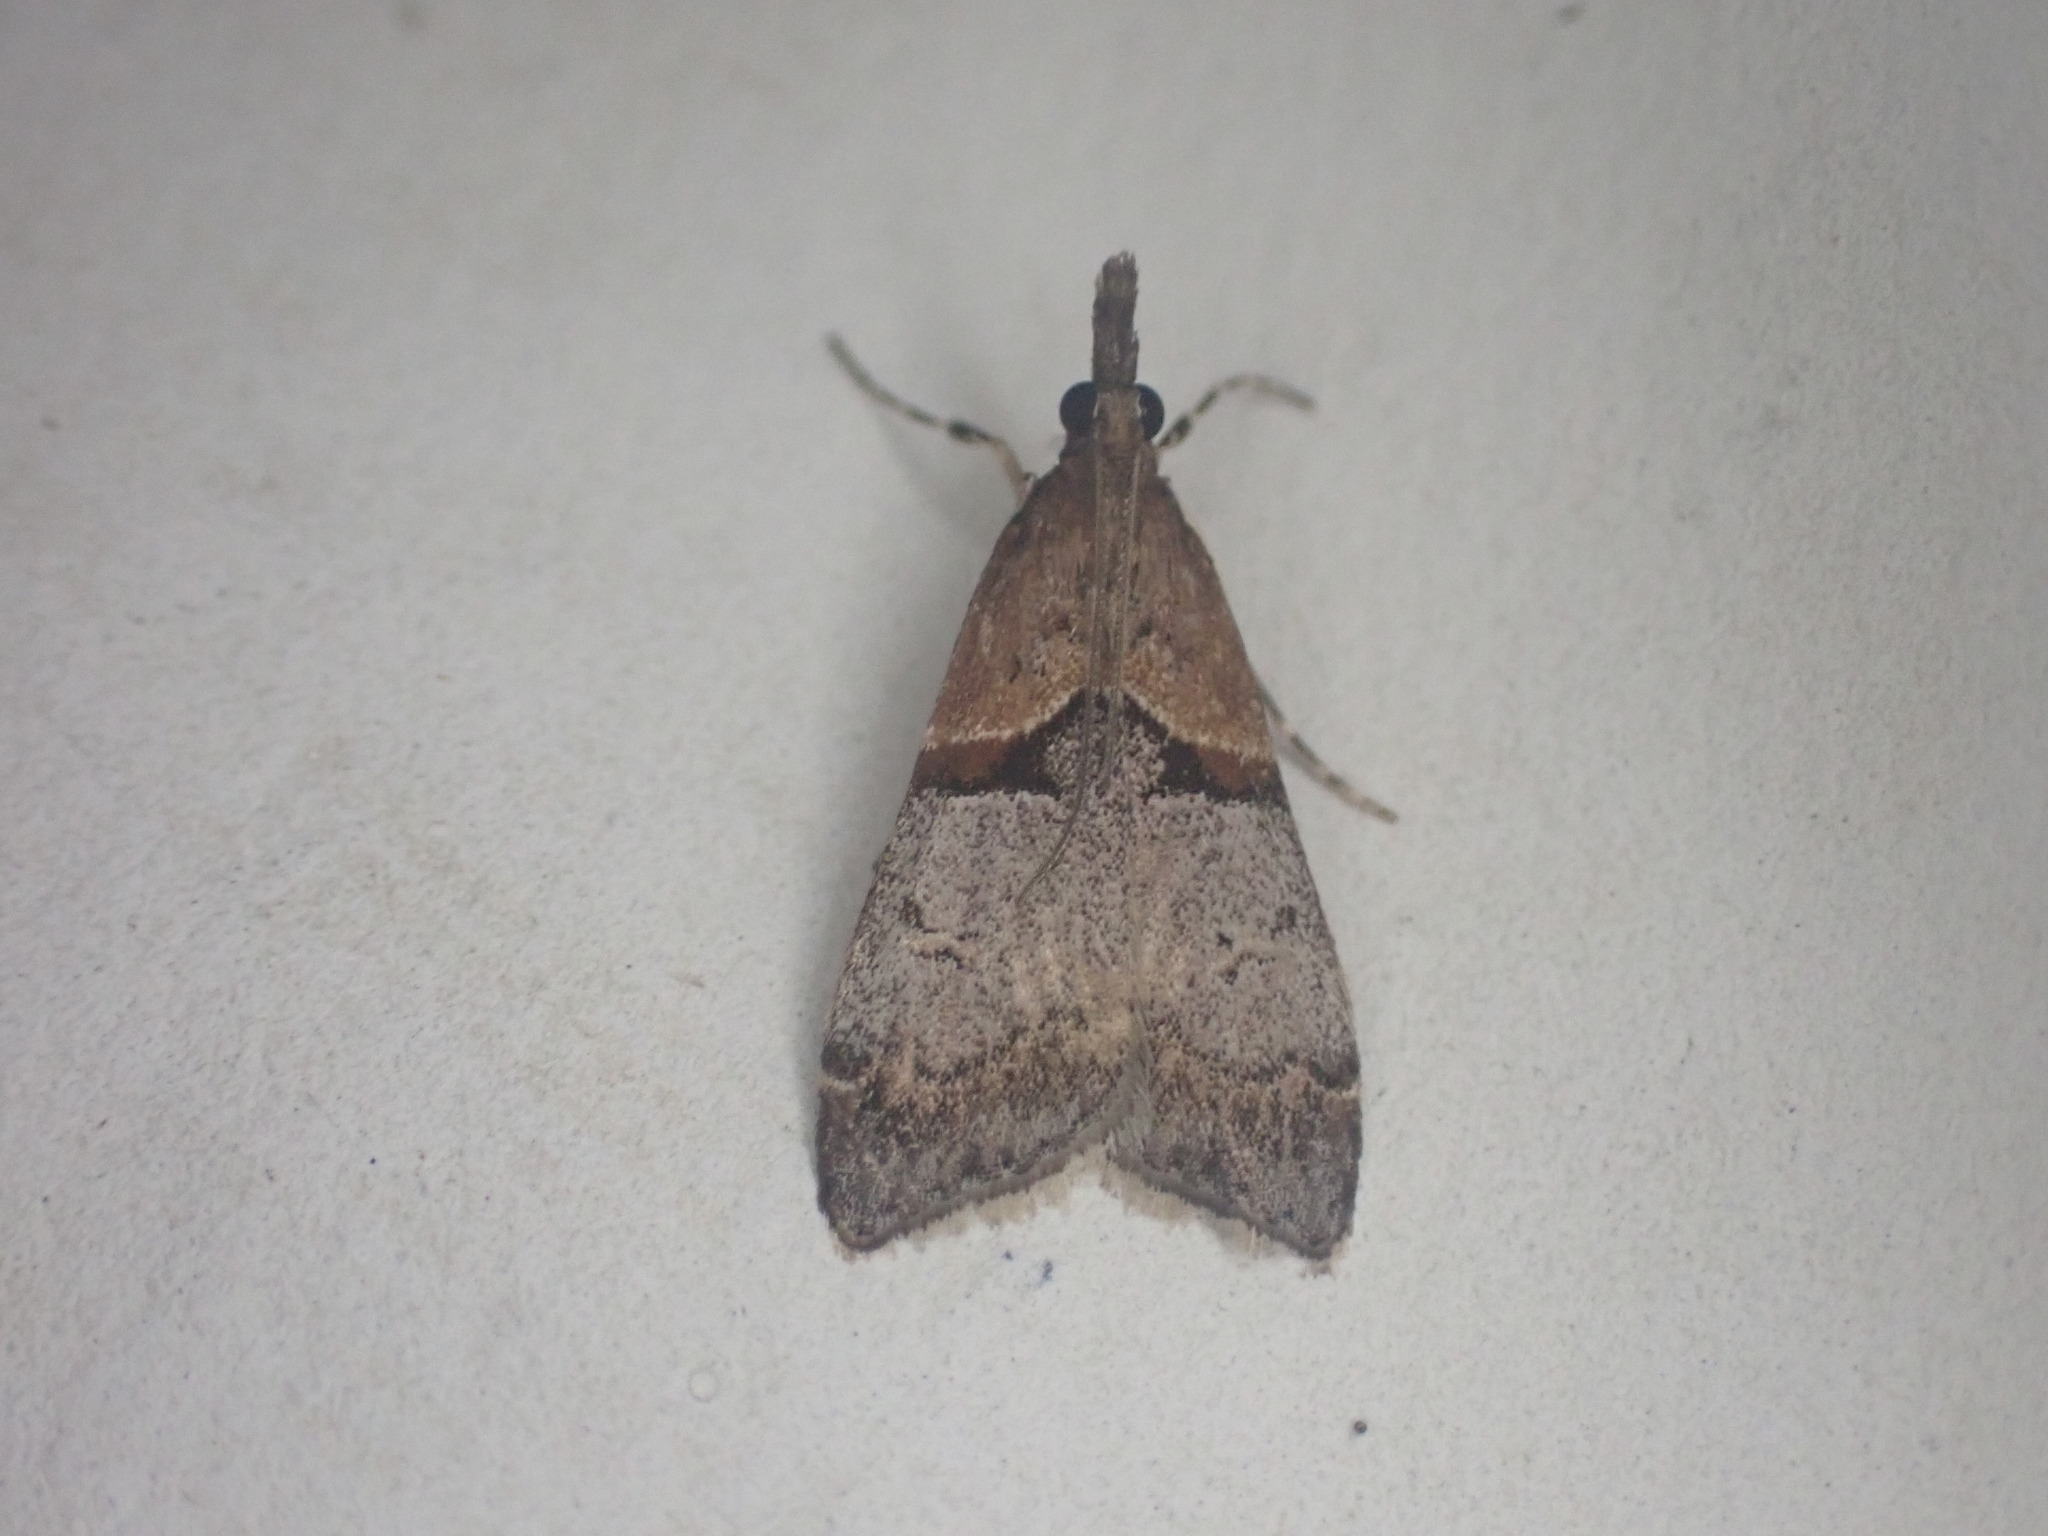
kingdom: Animalia
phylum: Arthropoda
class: Insecta
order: Lepidoptera
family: Crambidae
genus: Antiscopa
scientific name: Antiscopa epicomia
